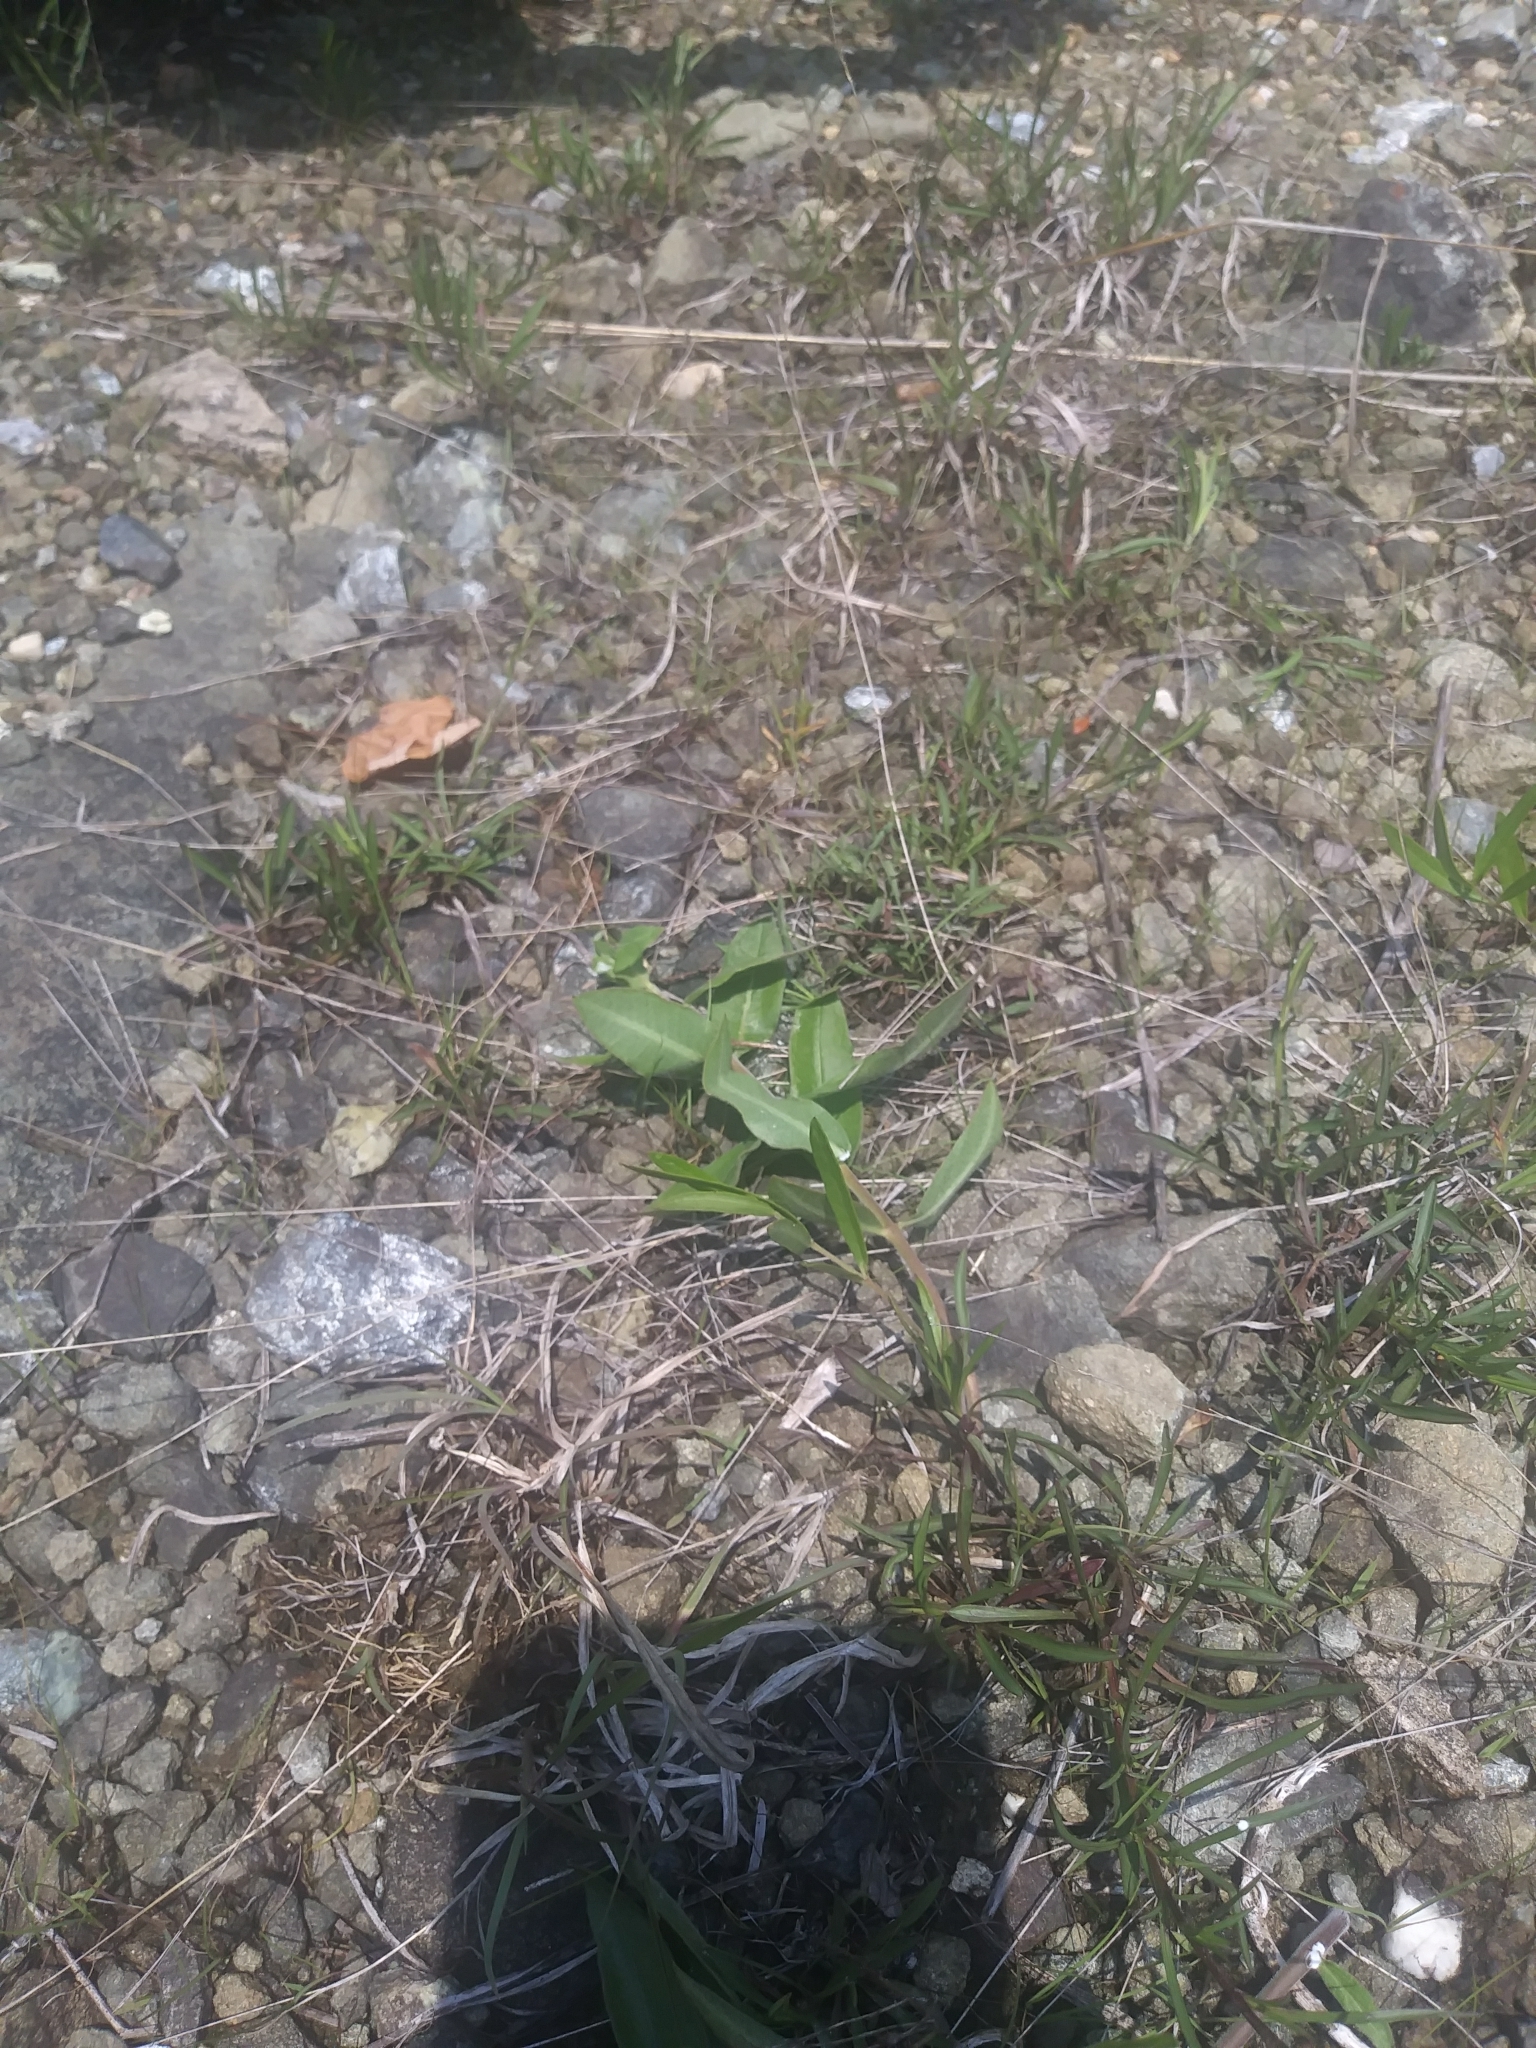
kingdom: Plantae
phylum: Tracheophyta
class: Magnoliopsida
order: Gentianales
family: Apocynaceae
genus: Asclepias
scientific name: Asclepias viridiflora
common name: Green comet milkweed
